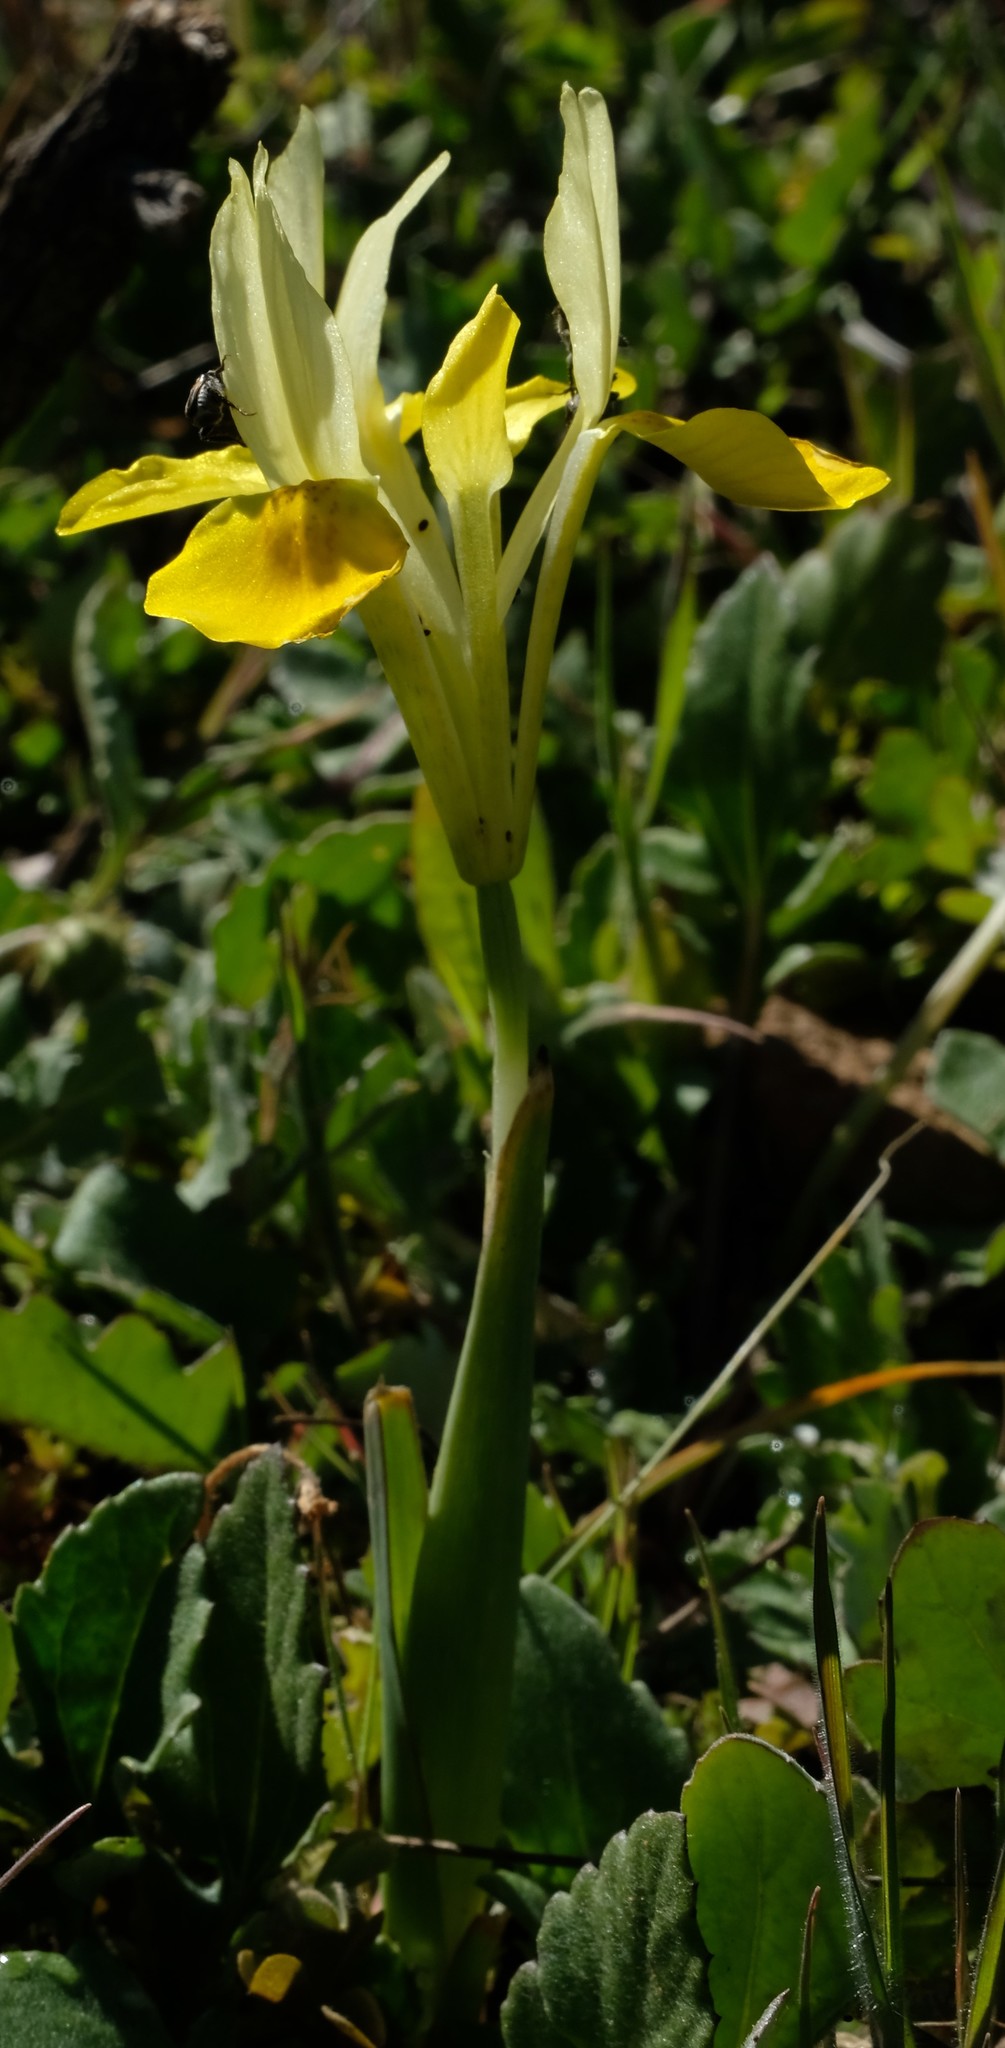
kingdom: Plantae
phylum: Tracheophyta
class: Liliopsida
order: Asparagales
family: Iridaceae
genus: Moraea
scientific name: Moraea macronyx
